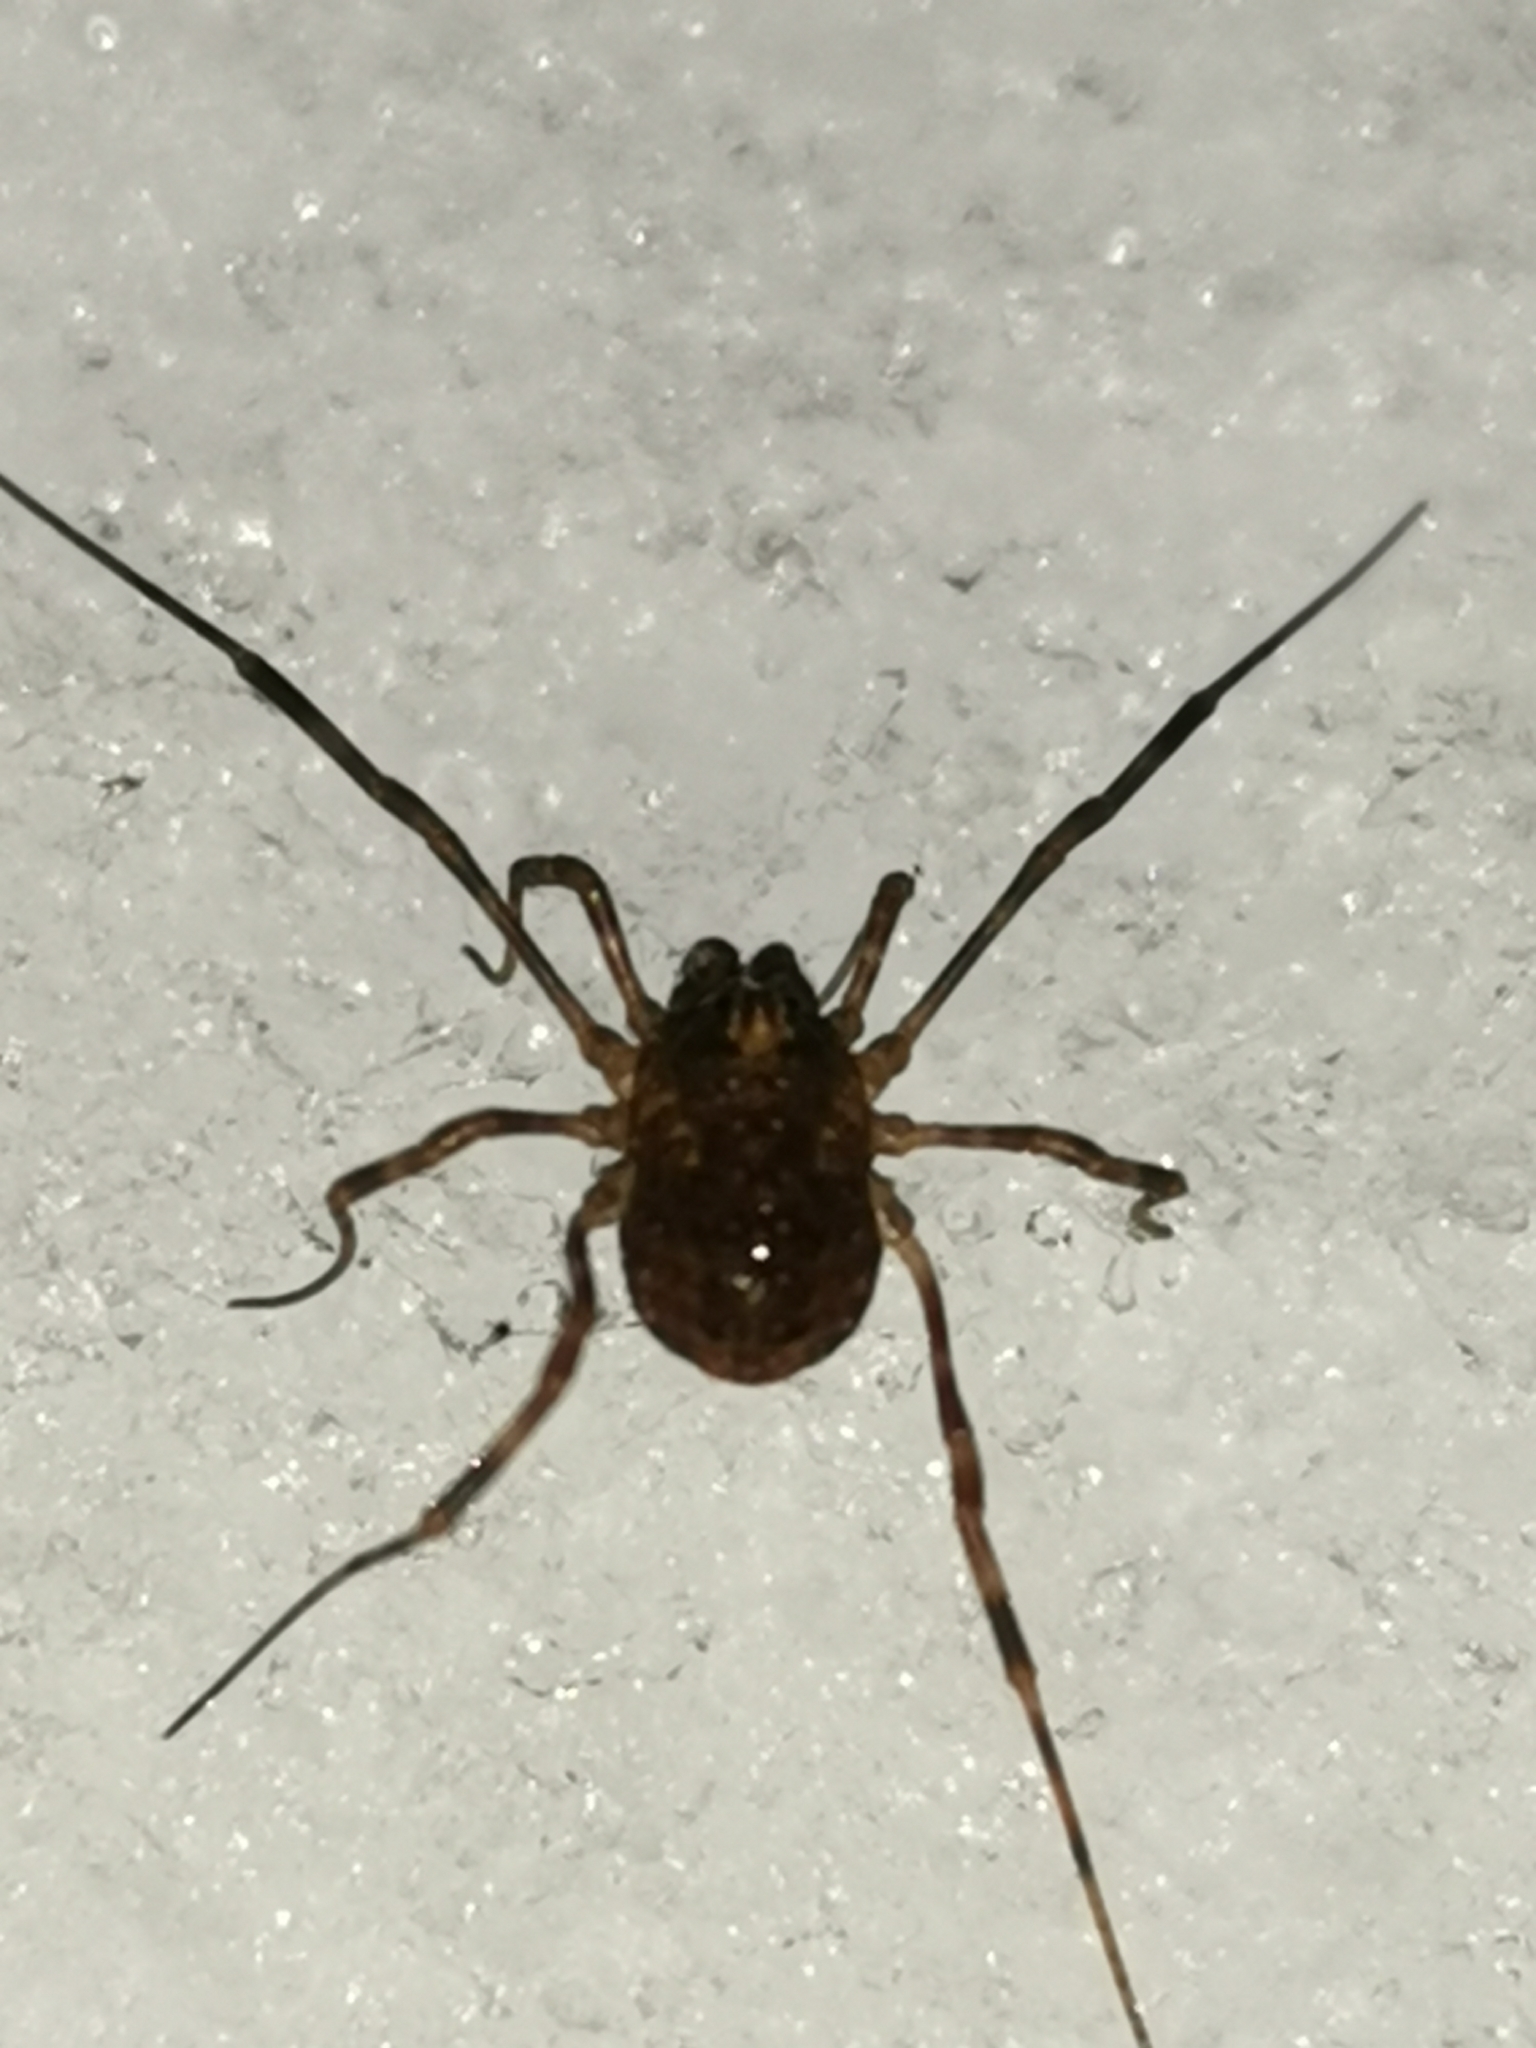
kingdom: Animalia
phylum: Arthropoda
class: Arachnida
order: Opiliones
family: Phalangiidae
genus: Rilaena
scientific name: Rilaena triangularis
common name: Spring harvestman
